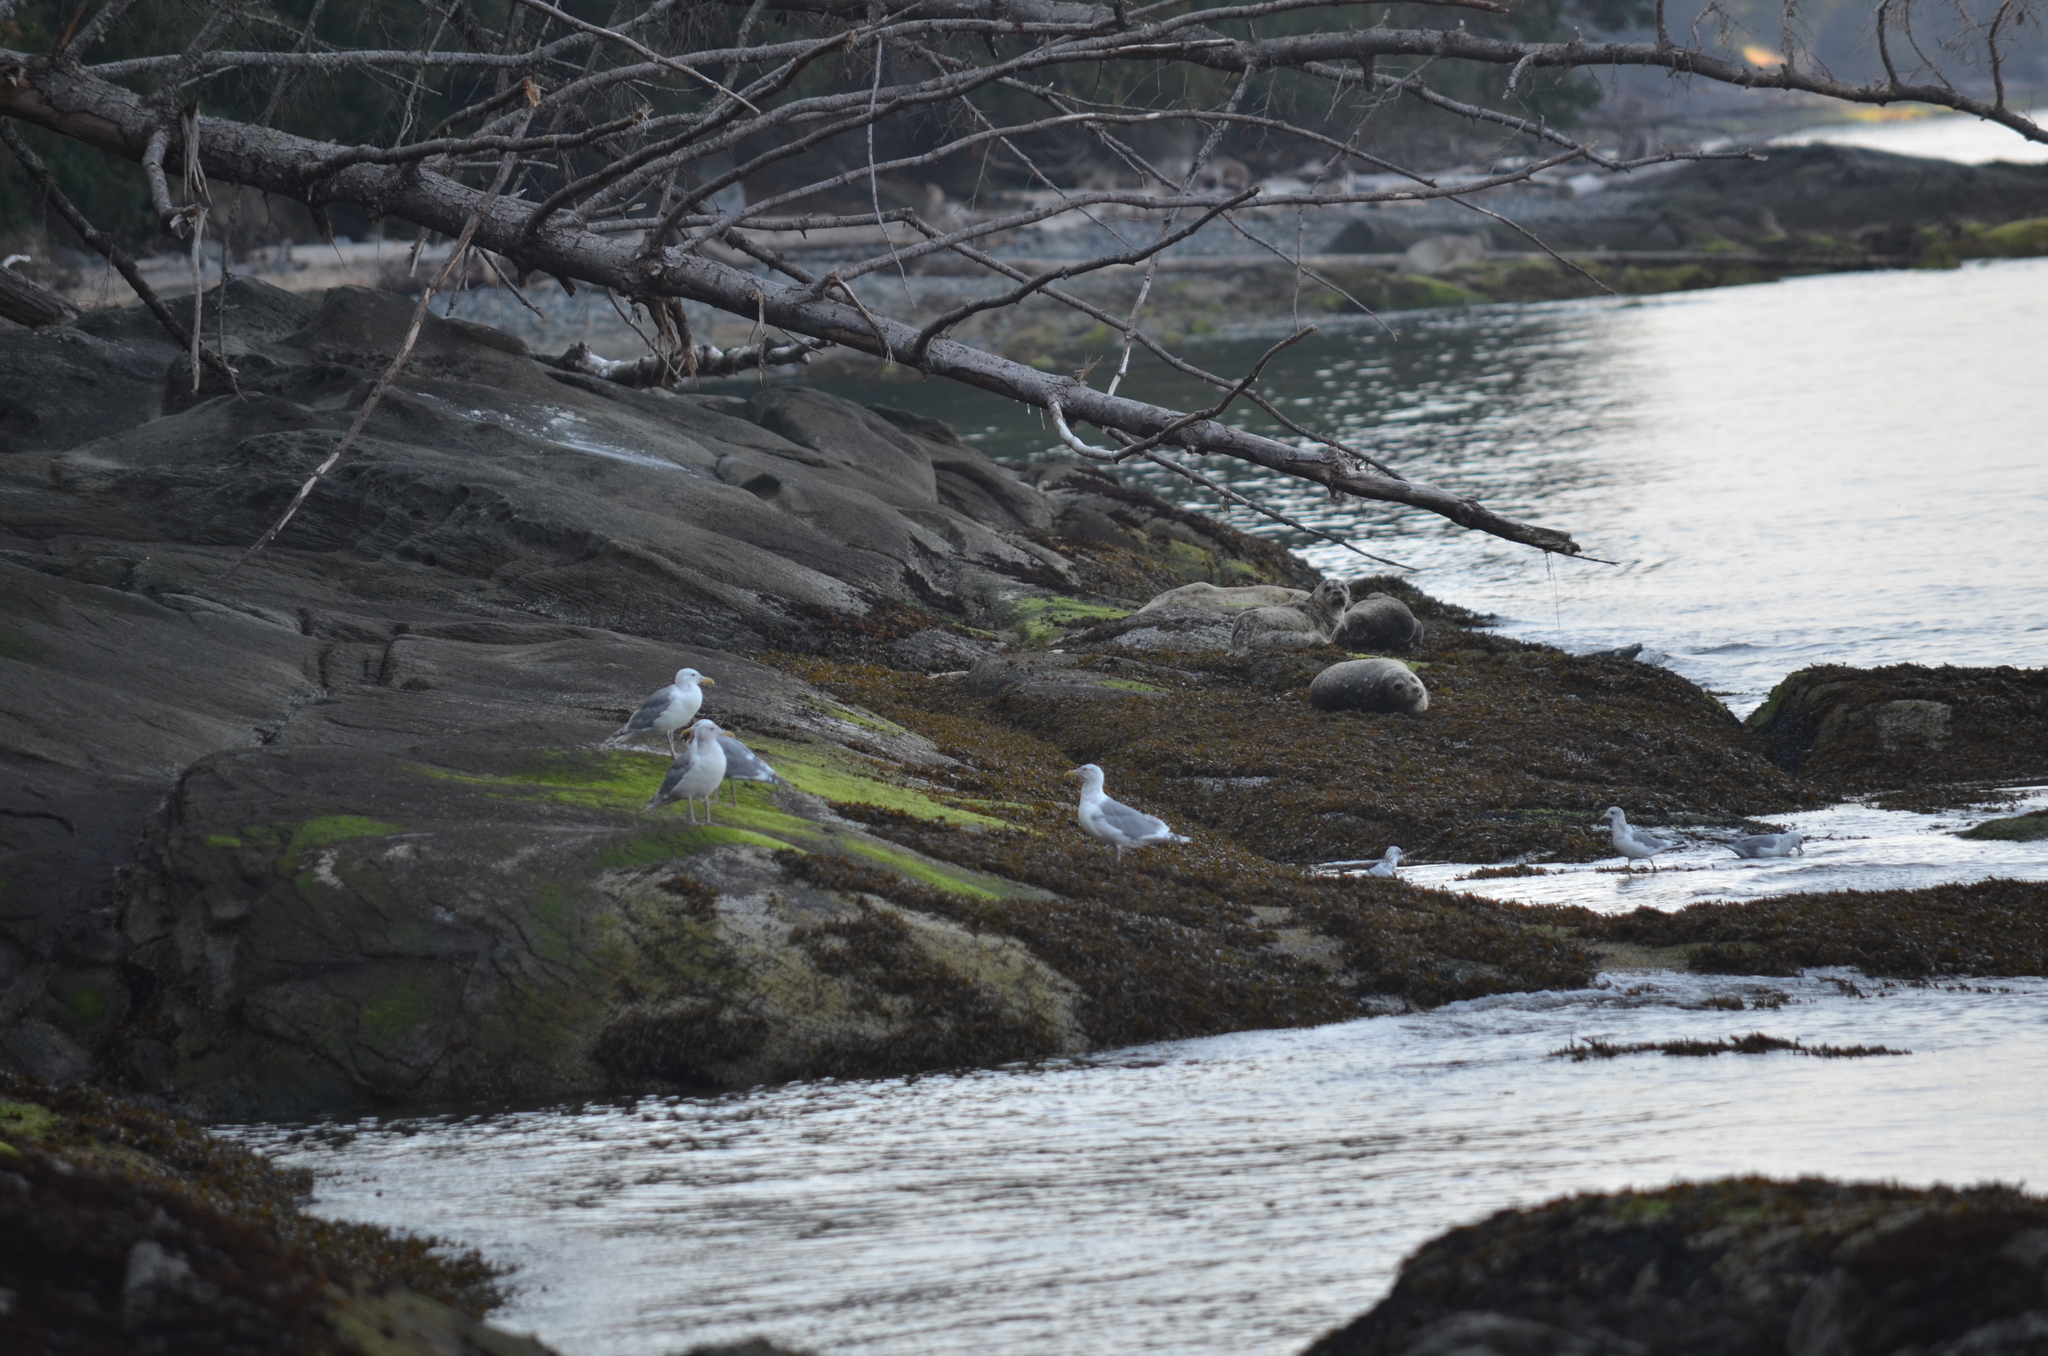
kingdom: Animalia
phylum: Chordata
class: Aves
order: Charadriiformes
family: Laridae
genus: Larus
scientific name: Larus brachyrhynchus
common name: Short-billed gull
